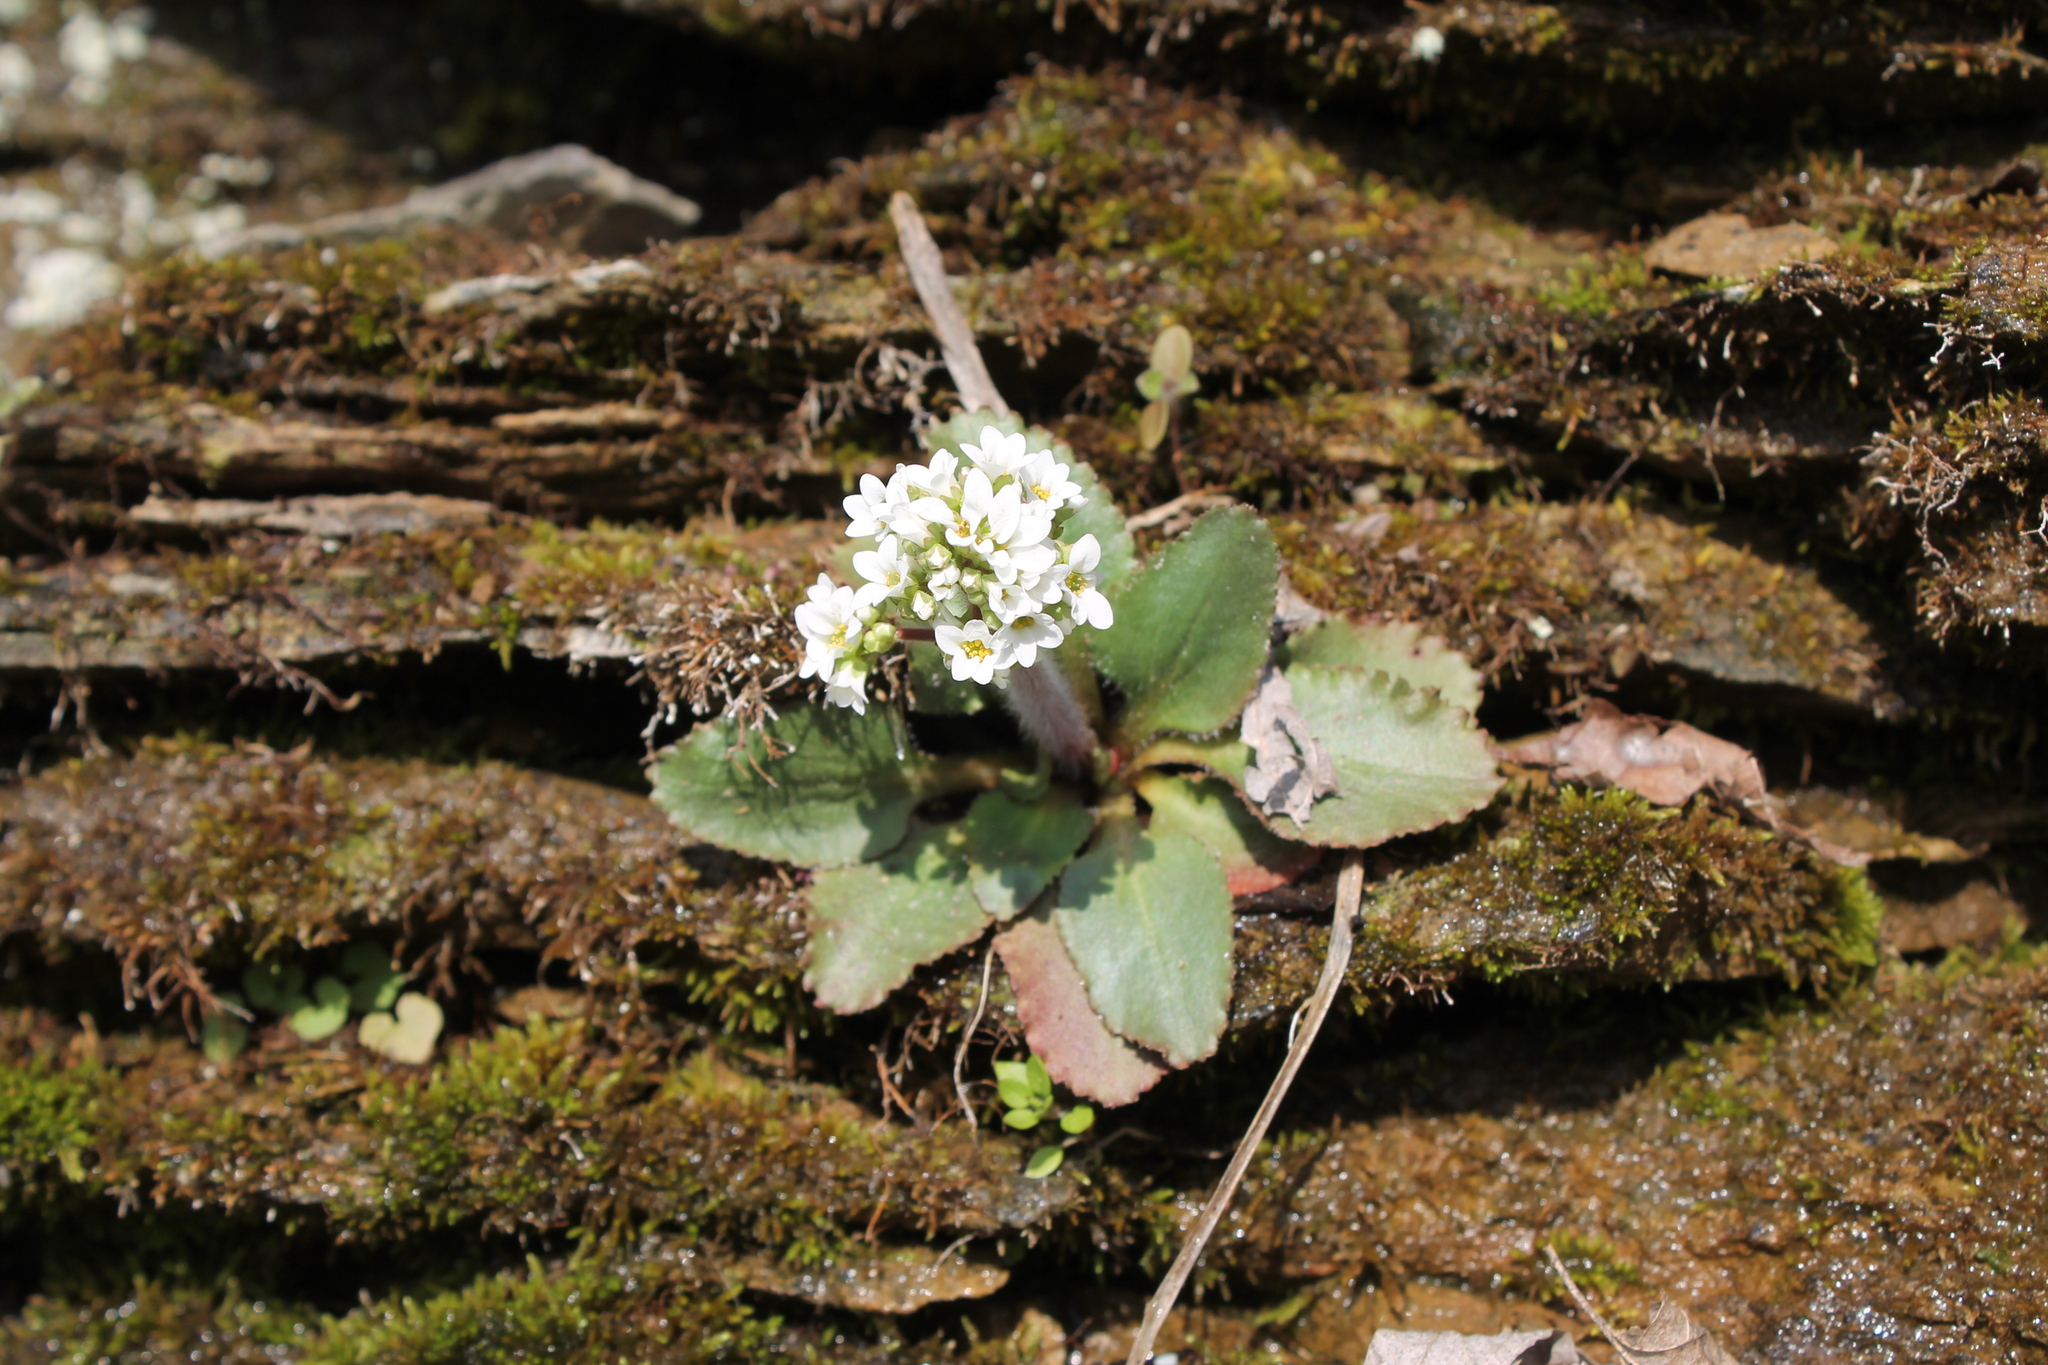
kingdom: Plantae
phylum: Tracheophyta
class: Magnoliopsida
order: Saxifragales
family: Saxifragaceae
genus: Micranthes
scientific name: Micranthes virginiensis
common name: Early saxifrage
